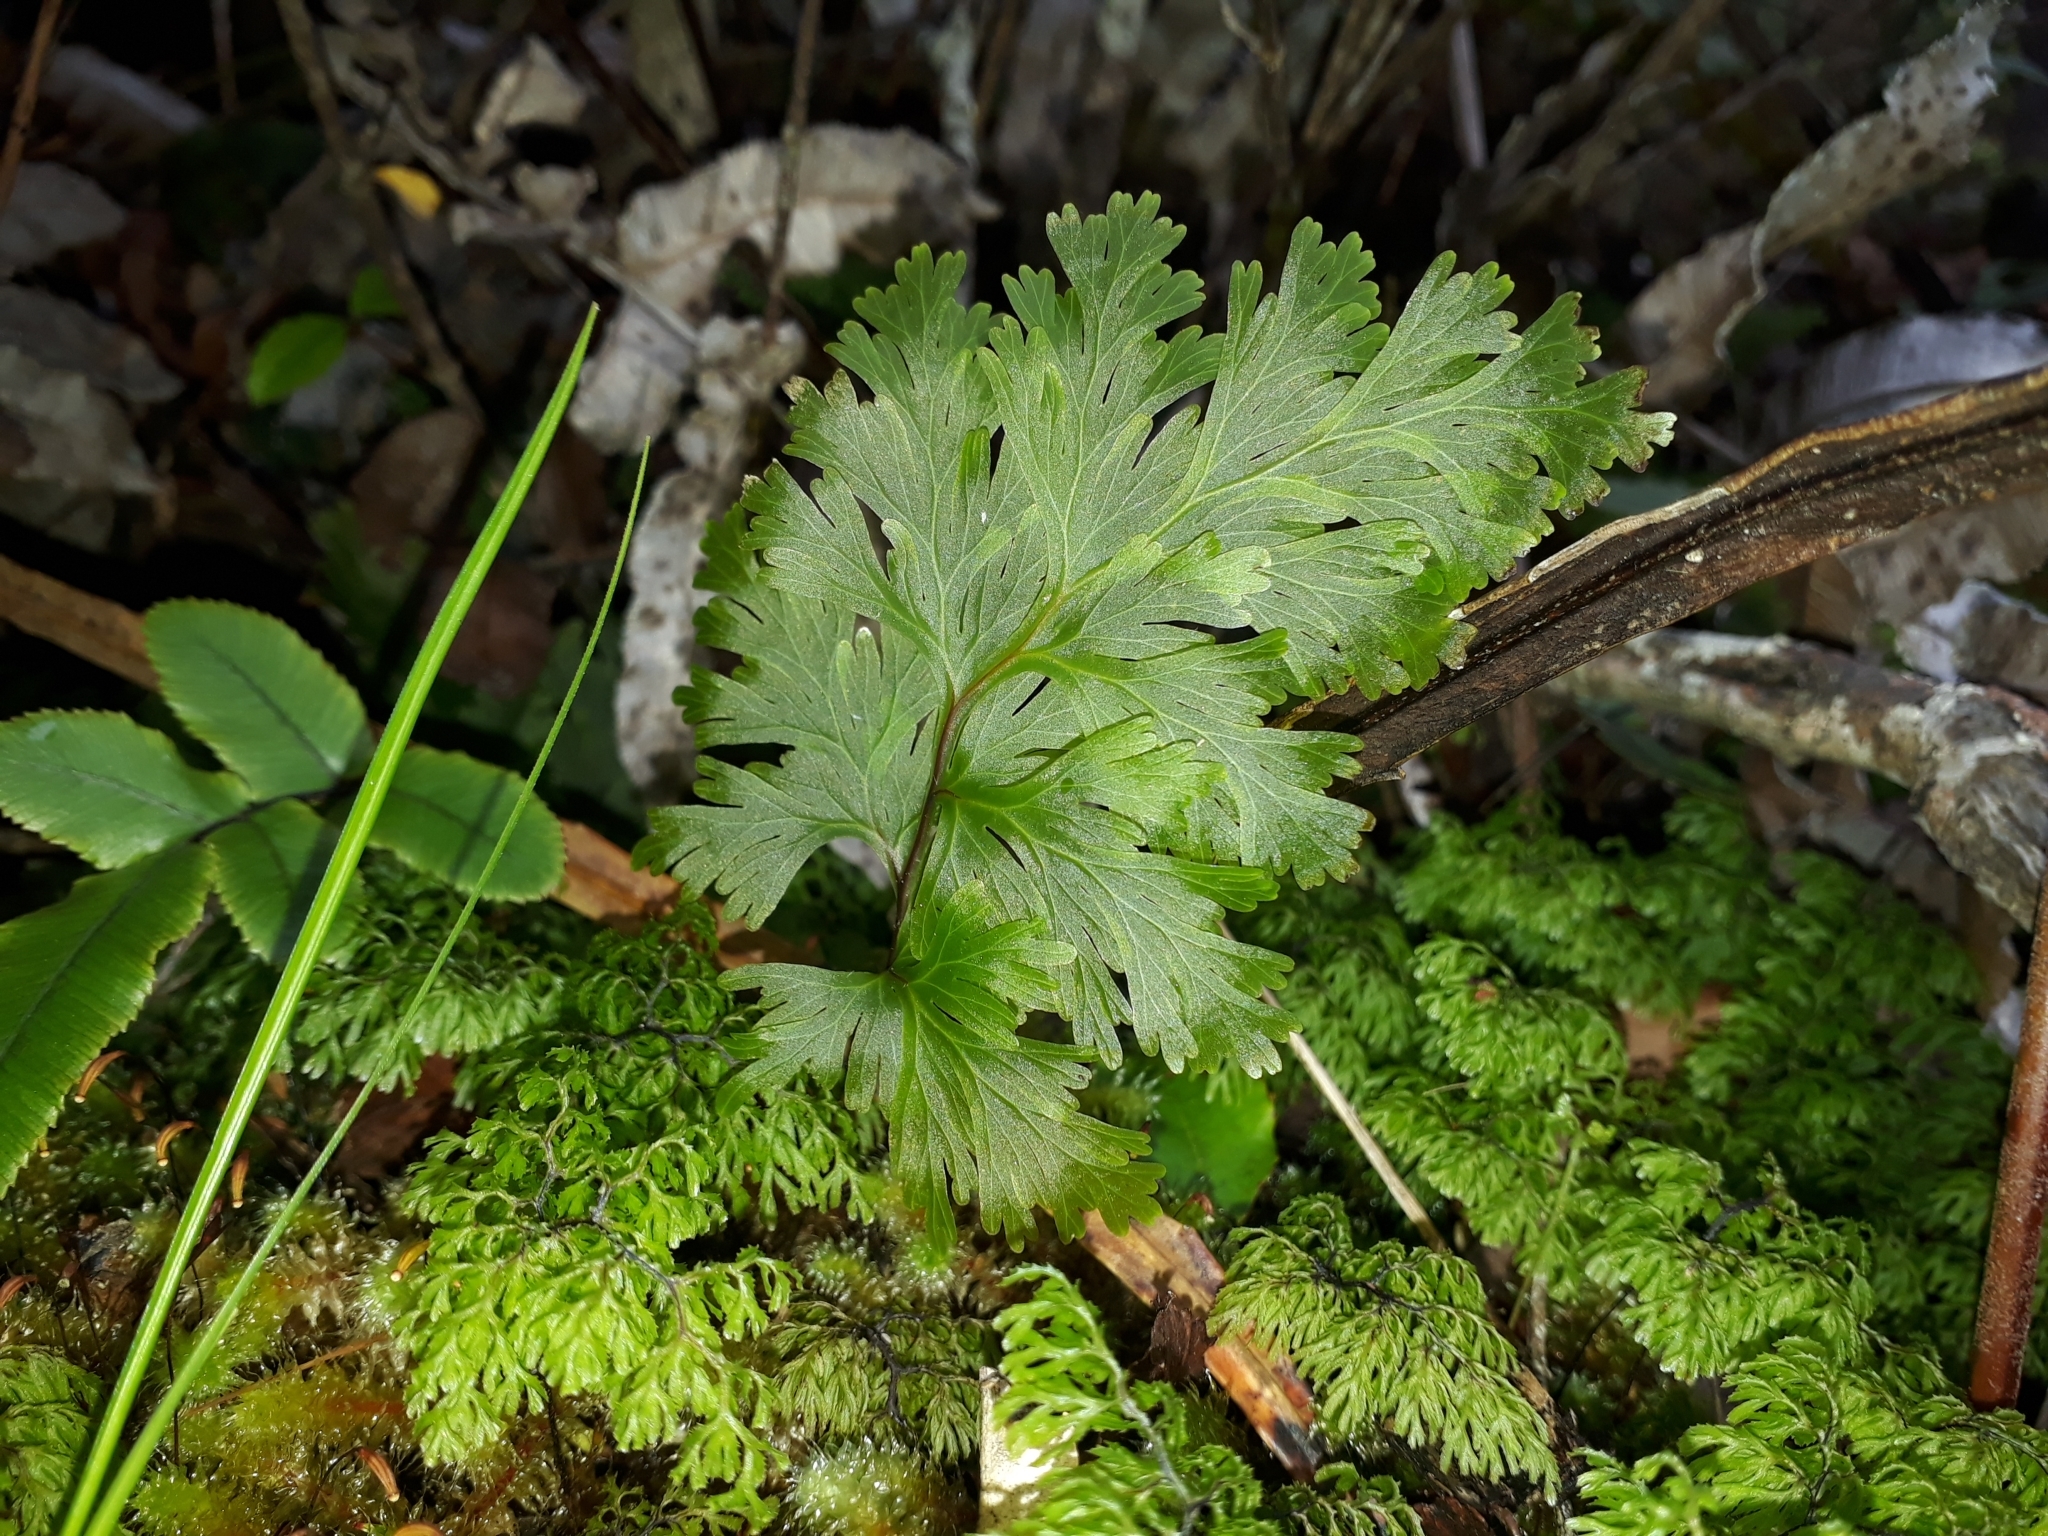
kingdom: Plantae
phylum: Tracheophyta
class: Polypodiopsida
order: Hymenophyllales
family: Hymenophyllaceae
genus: Hymenophyllum
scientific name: Hymenophyllum dilatatum
